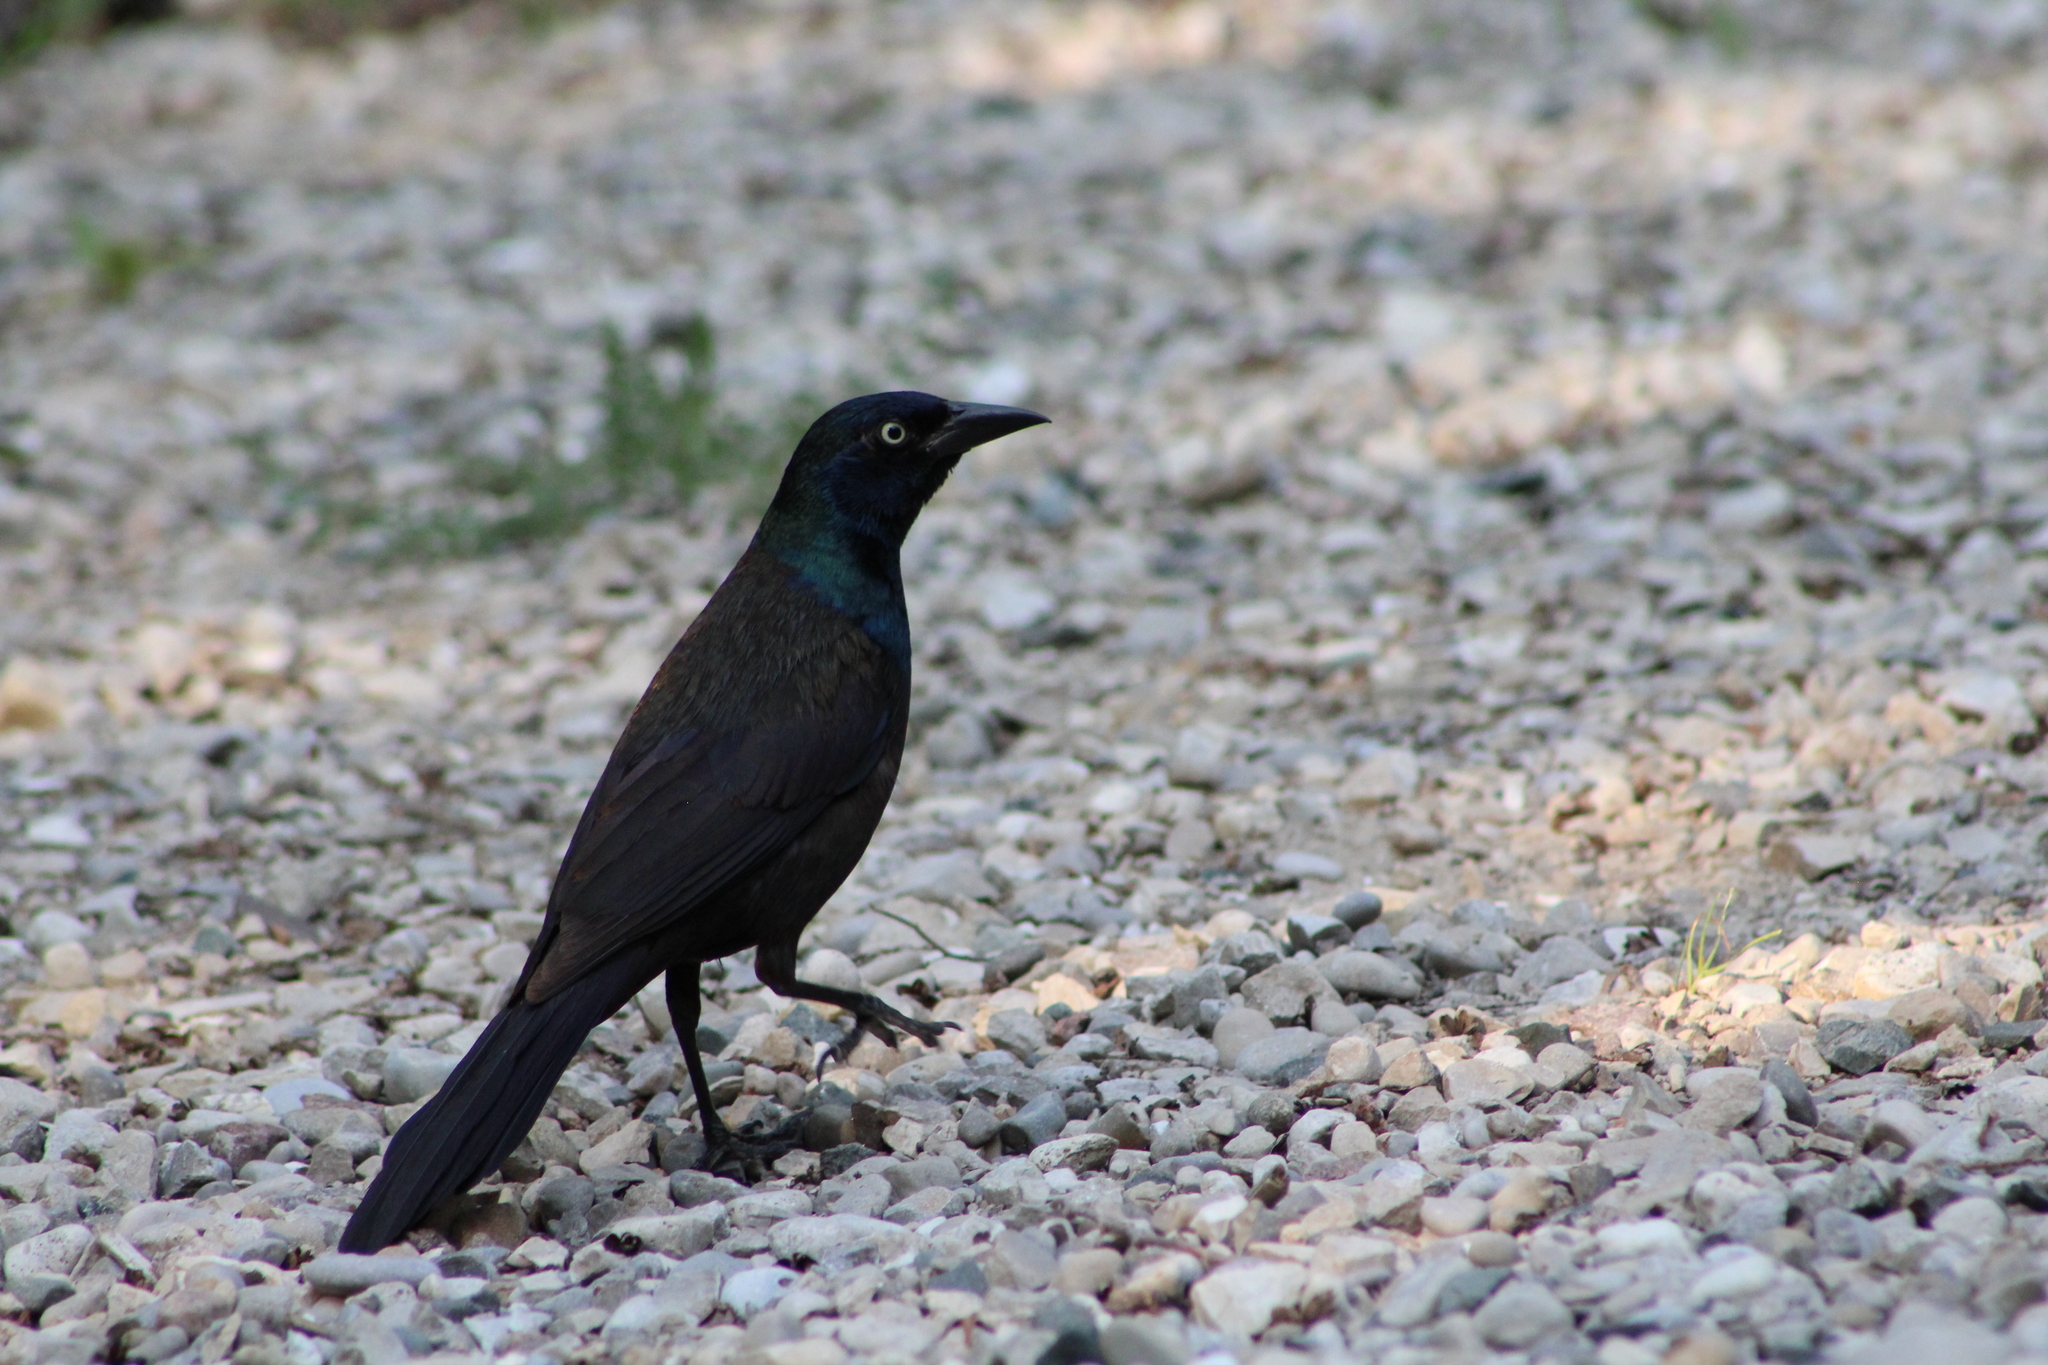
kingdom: Animalia
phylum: Chordata
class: Aves
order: Passeriformes
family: Icteridae
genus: Quiscalus
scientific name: Quiscalus quiscula
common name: Common grackle
